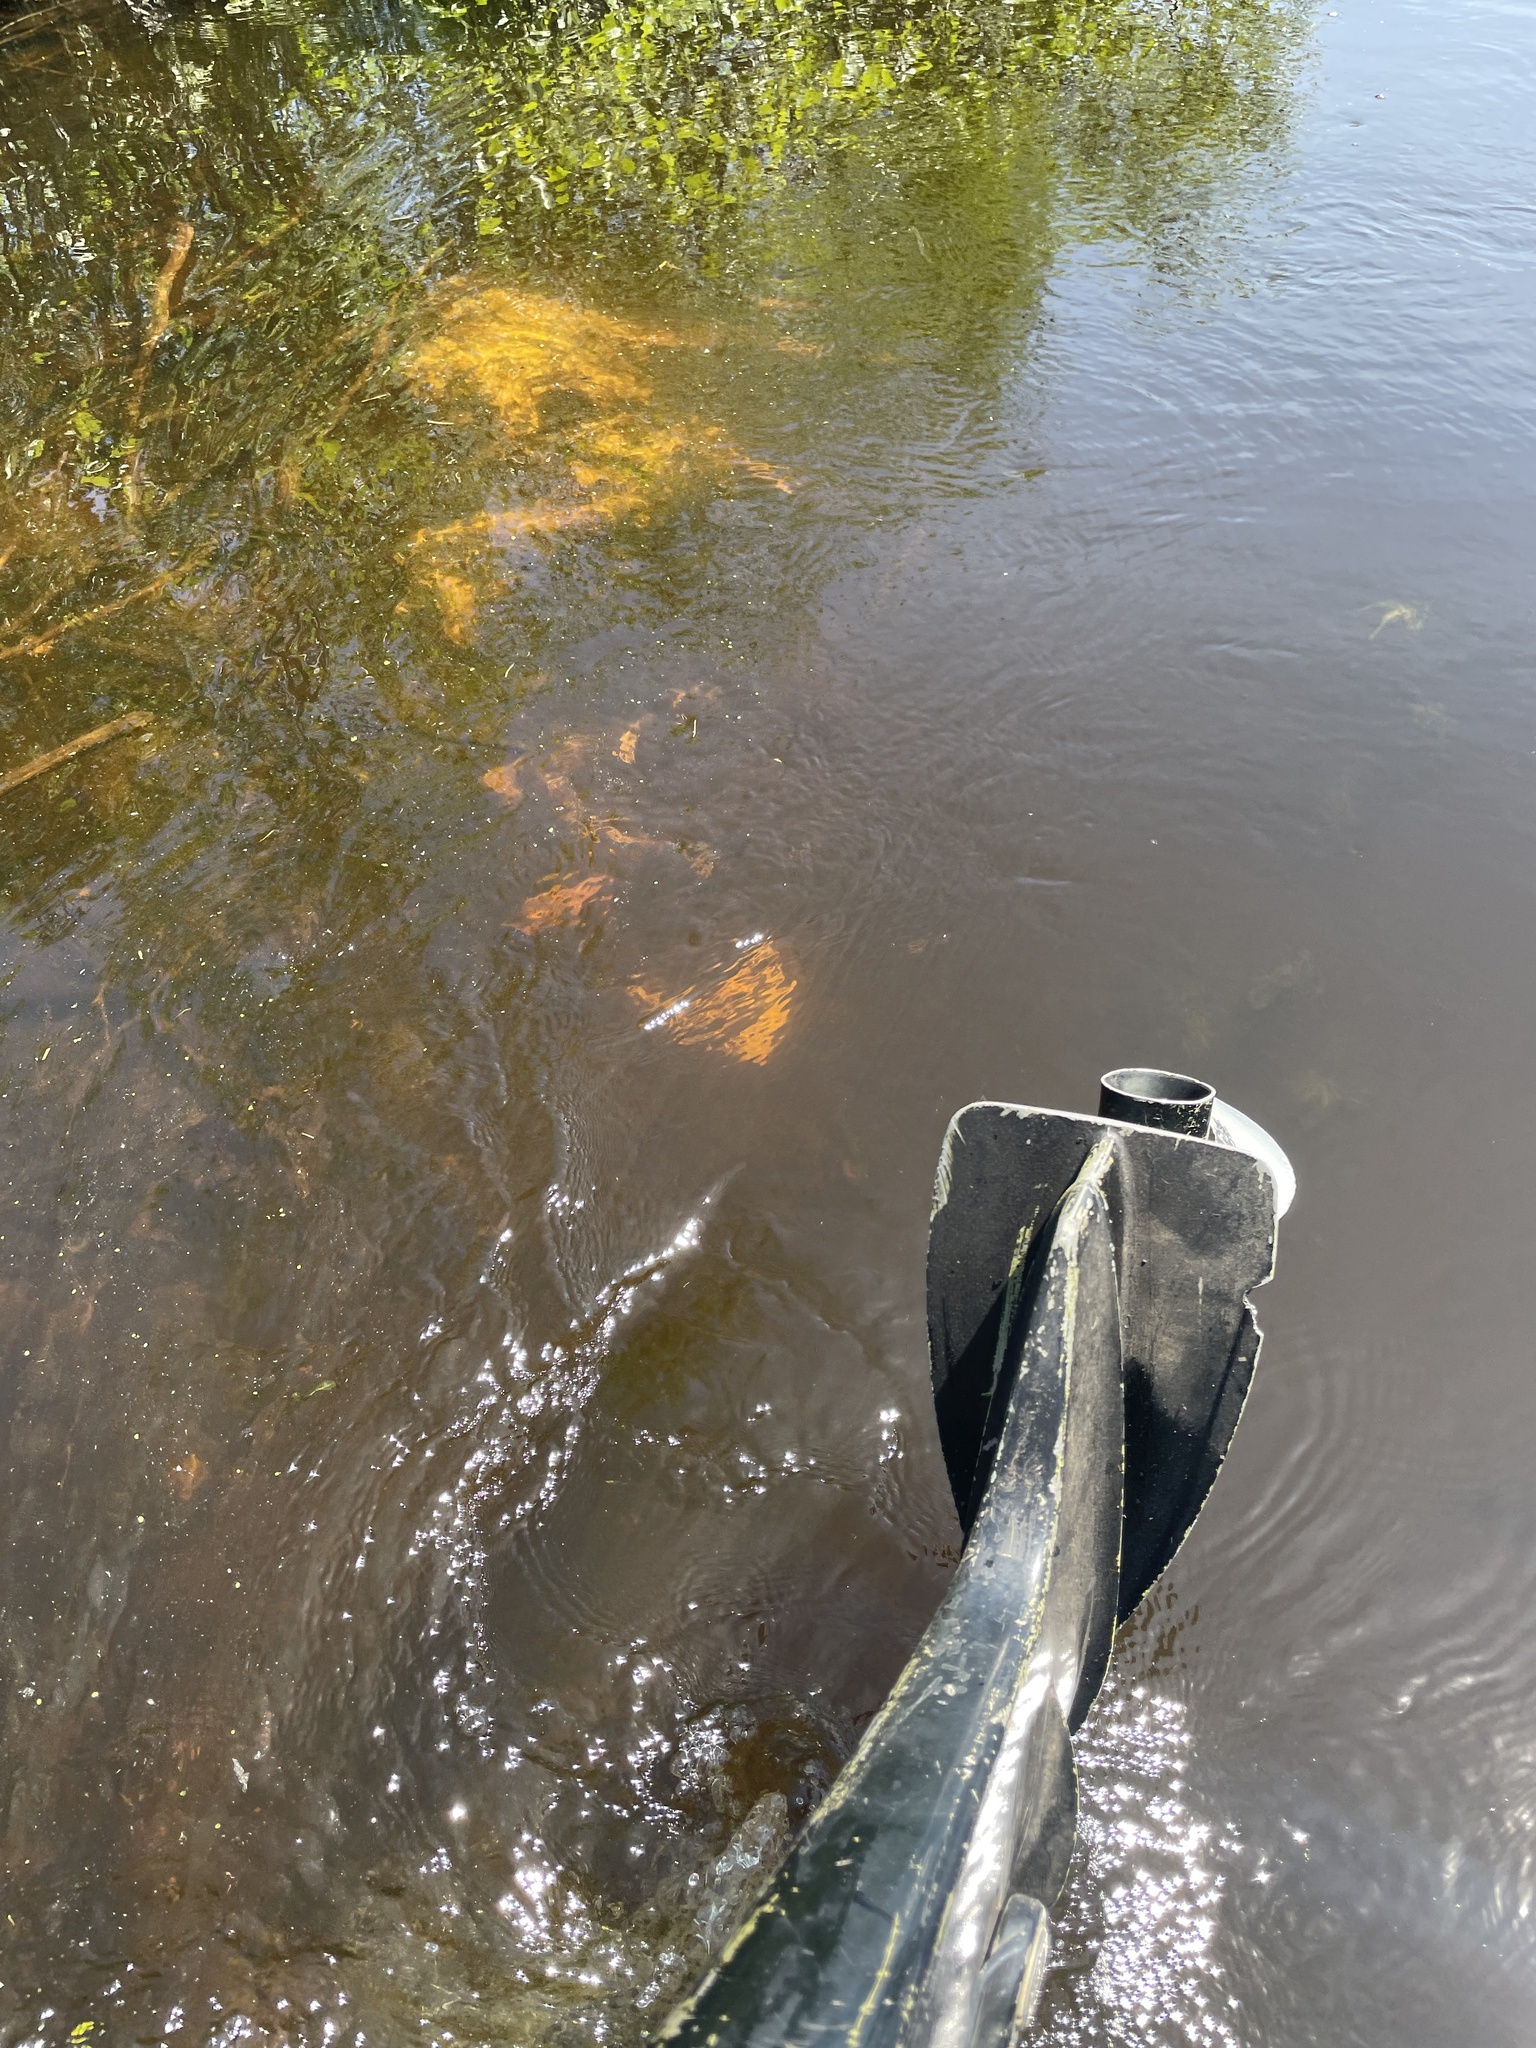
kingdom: Animalia
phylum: Chordata
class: Mammalia
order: Artiodactyla
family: Cervidae
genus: Odocoileus
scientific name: Odocoileus virginianus
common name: White-tailed deer
